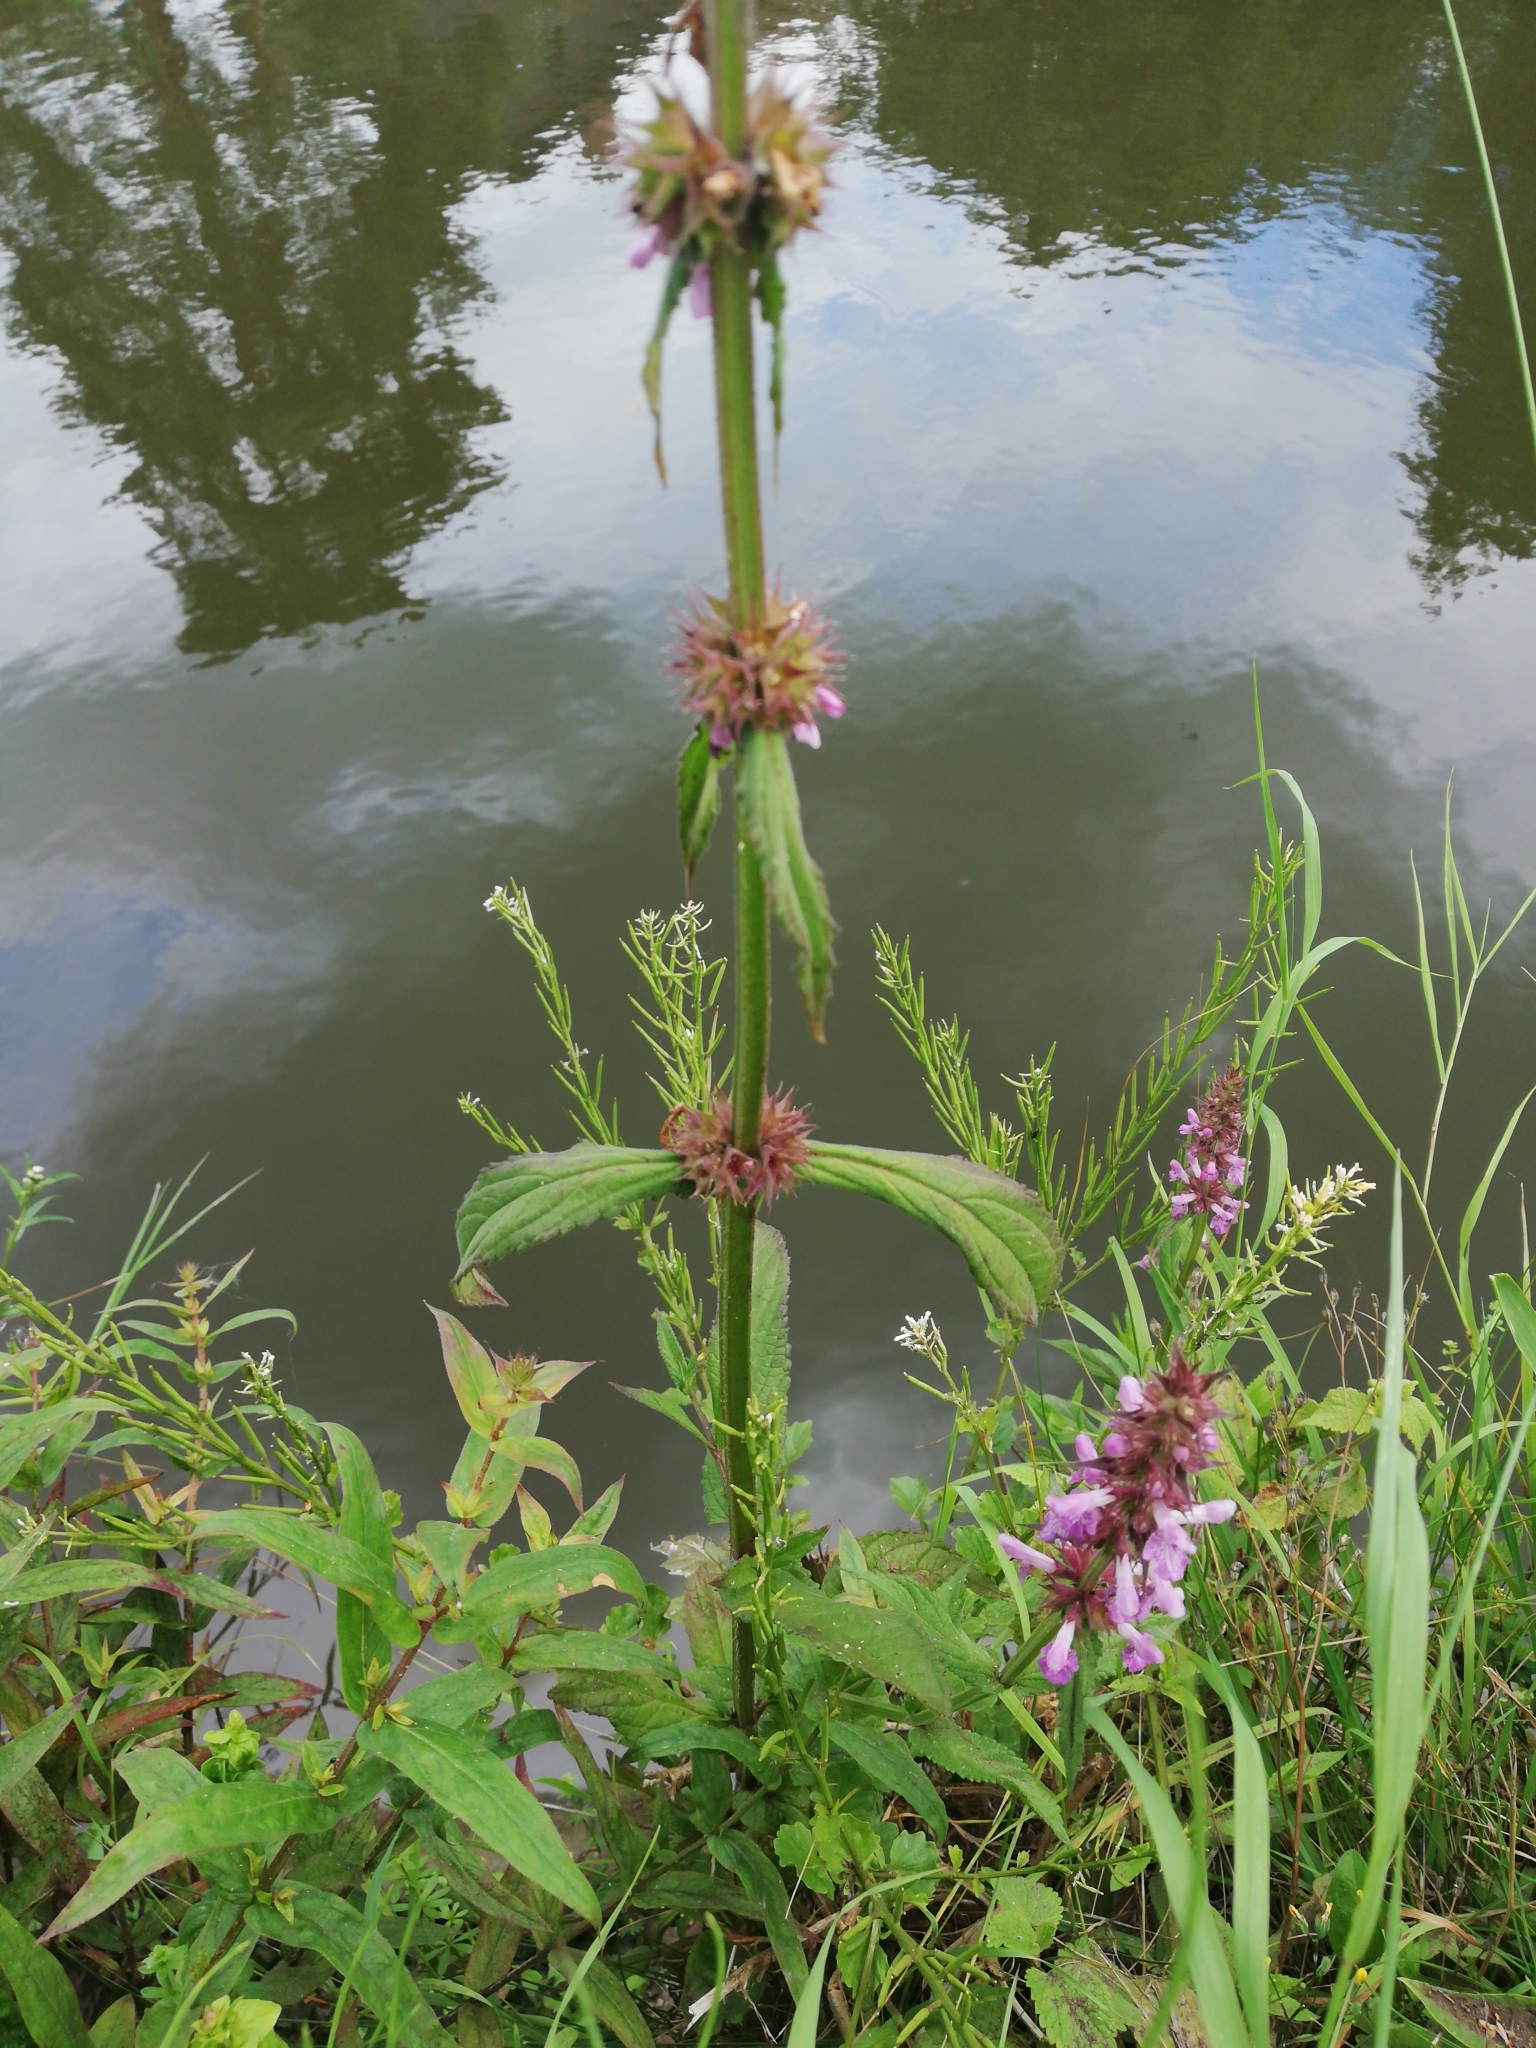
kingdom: Plantae
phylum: Tracheophyta
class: Magnoliopsida
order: Lamiales
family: Lamiaceae
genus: Stachys
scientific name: Stachys palustris
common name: Marsh woundwort
